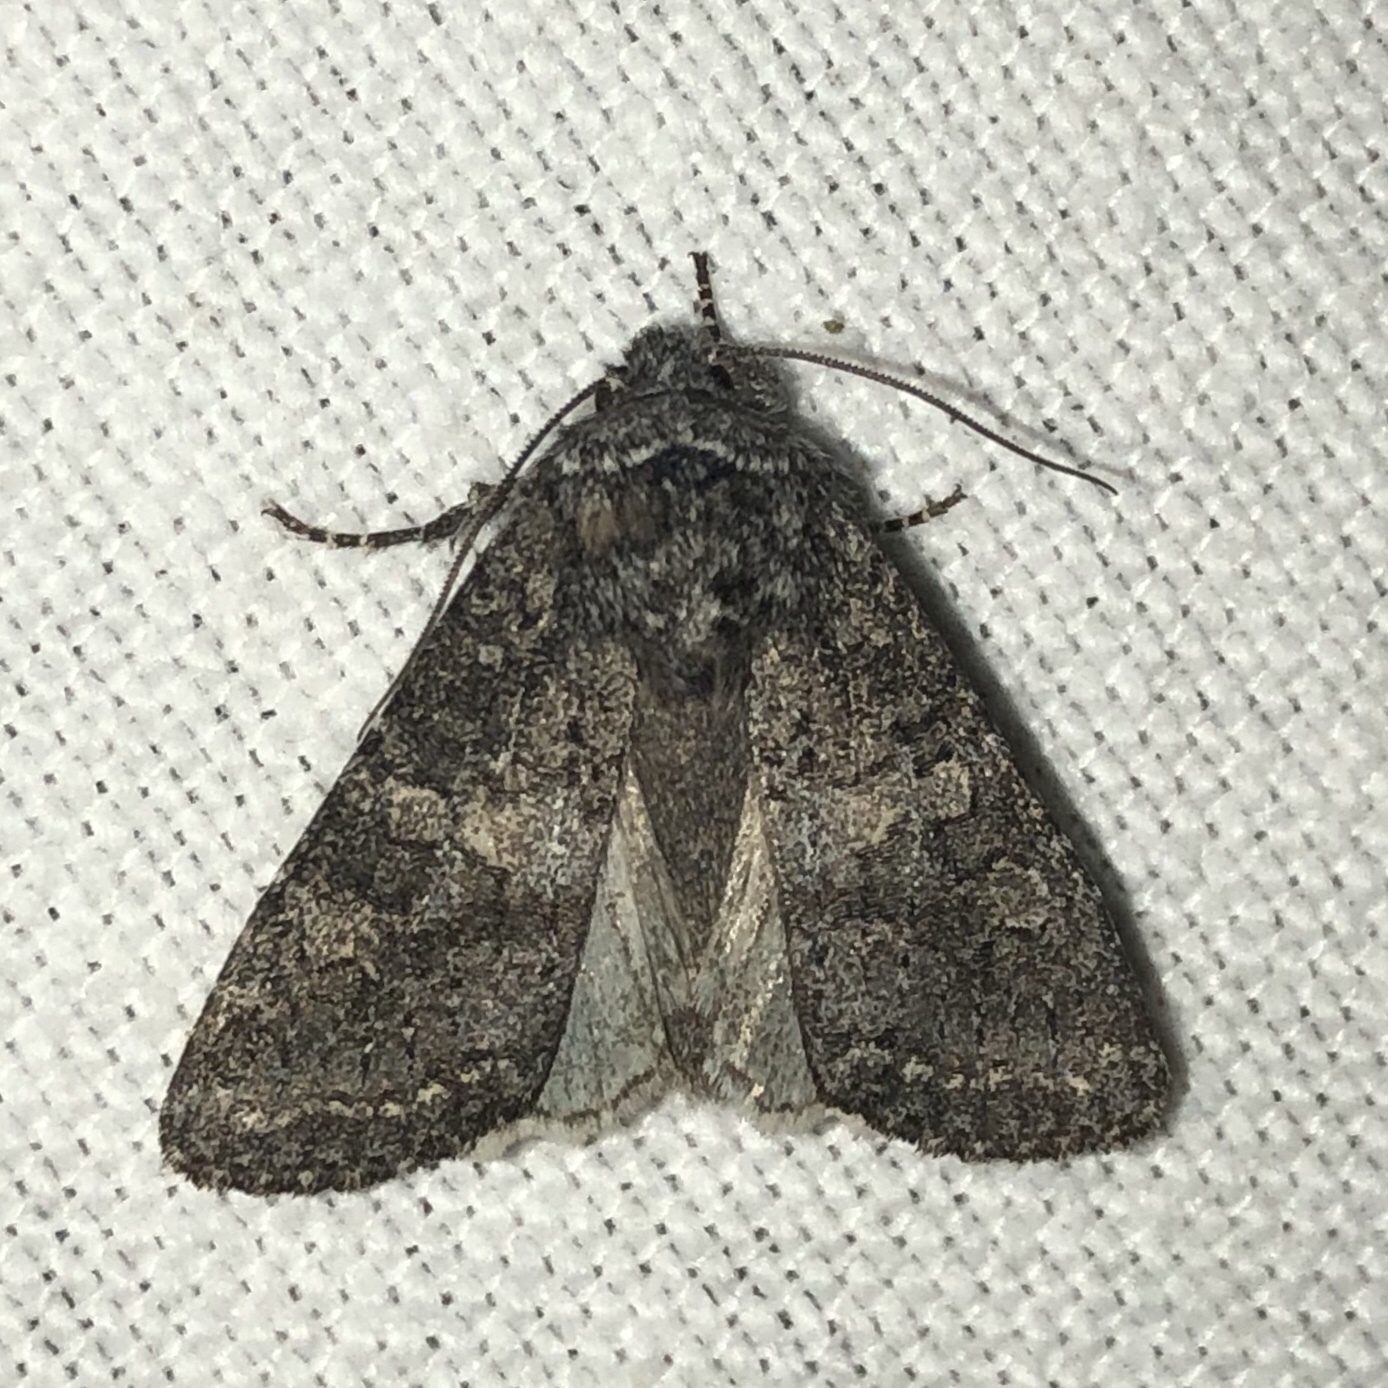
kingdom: Animalia
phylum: Arthropoda
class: Insecta
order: Lepidoptera
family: Noctuidae
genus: Egira
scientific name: Egira dolosa
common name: Lined black aspen cat.
